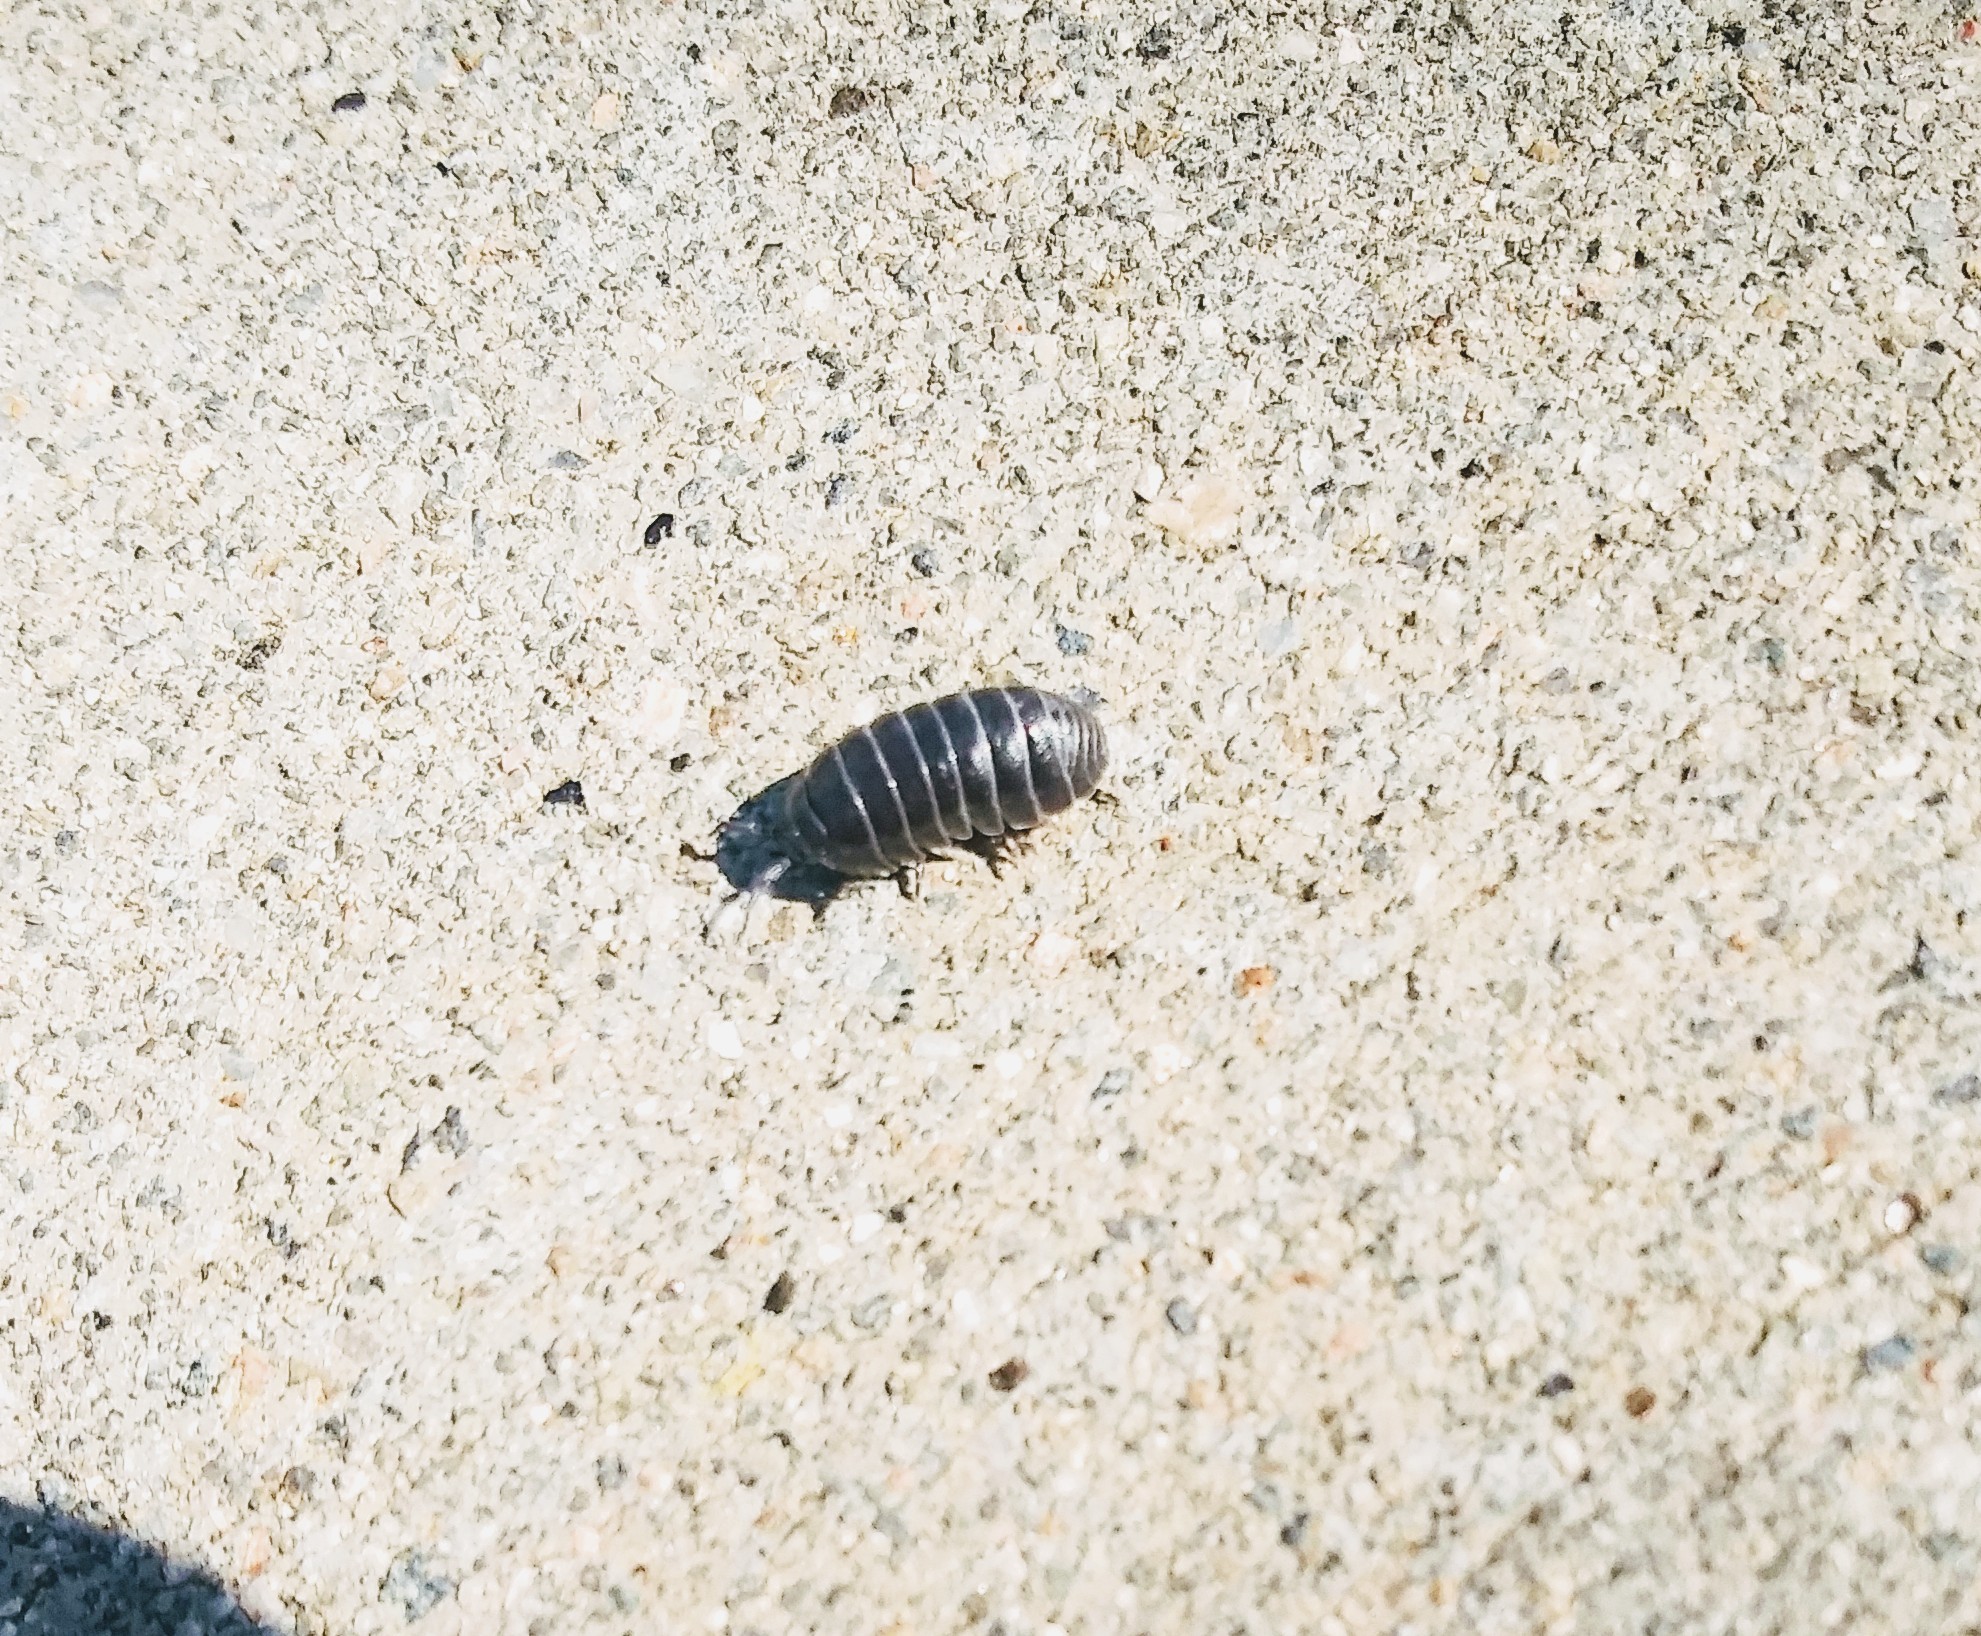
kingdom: Animalia
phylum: Arthropoda
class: Malacostraca
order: Isopoda
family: Armadillidiidae
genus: Armadillidium
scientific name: Armadillidium vulgare
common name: Common pill woodlouse
